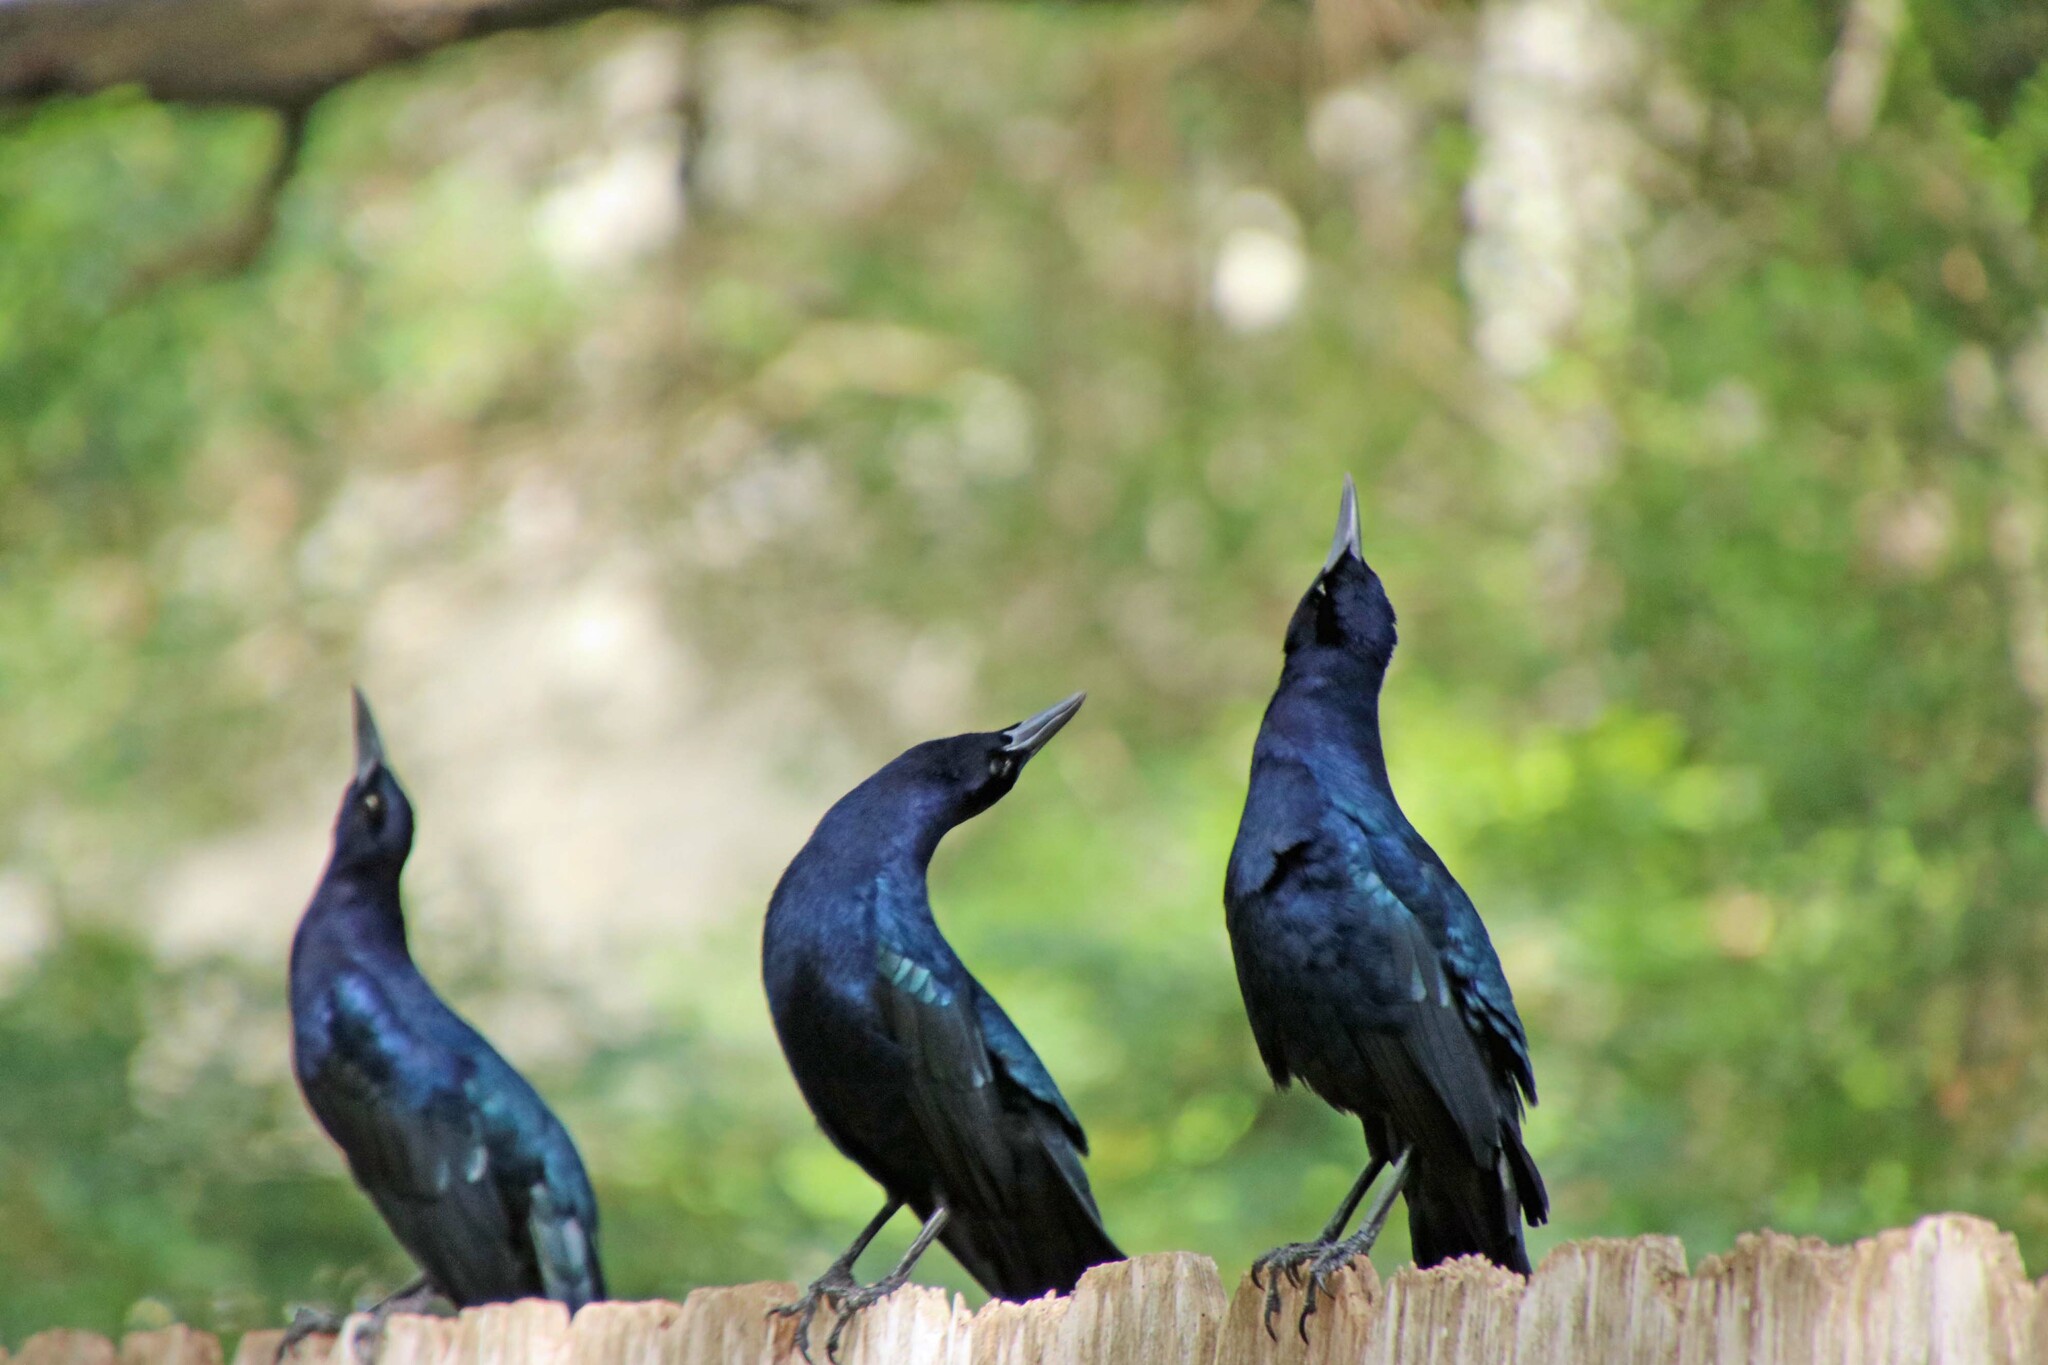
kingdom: Animalia
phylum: Chordata
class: Aves
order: Passeriformes
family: Icteridae
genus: Quiscalus
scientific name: Quiscalus mexicanus
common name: Great-tailed grackle
